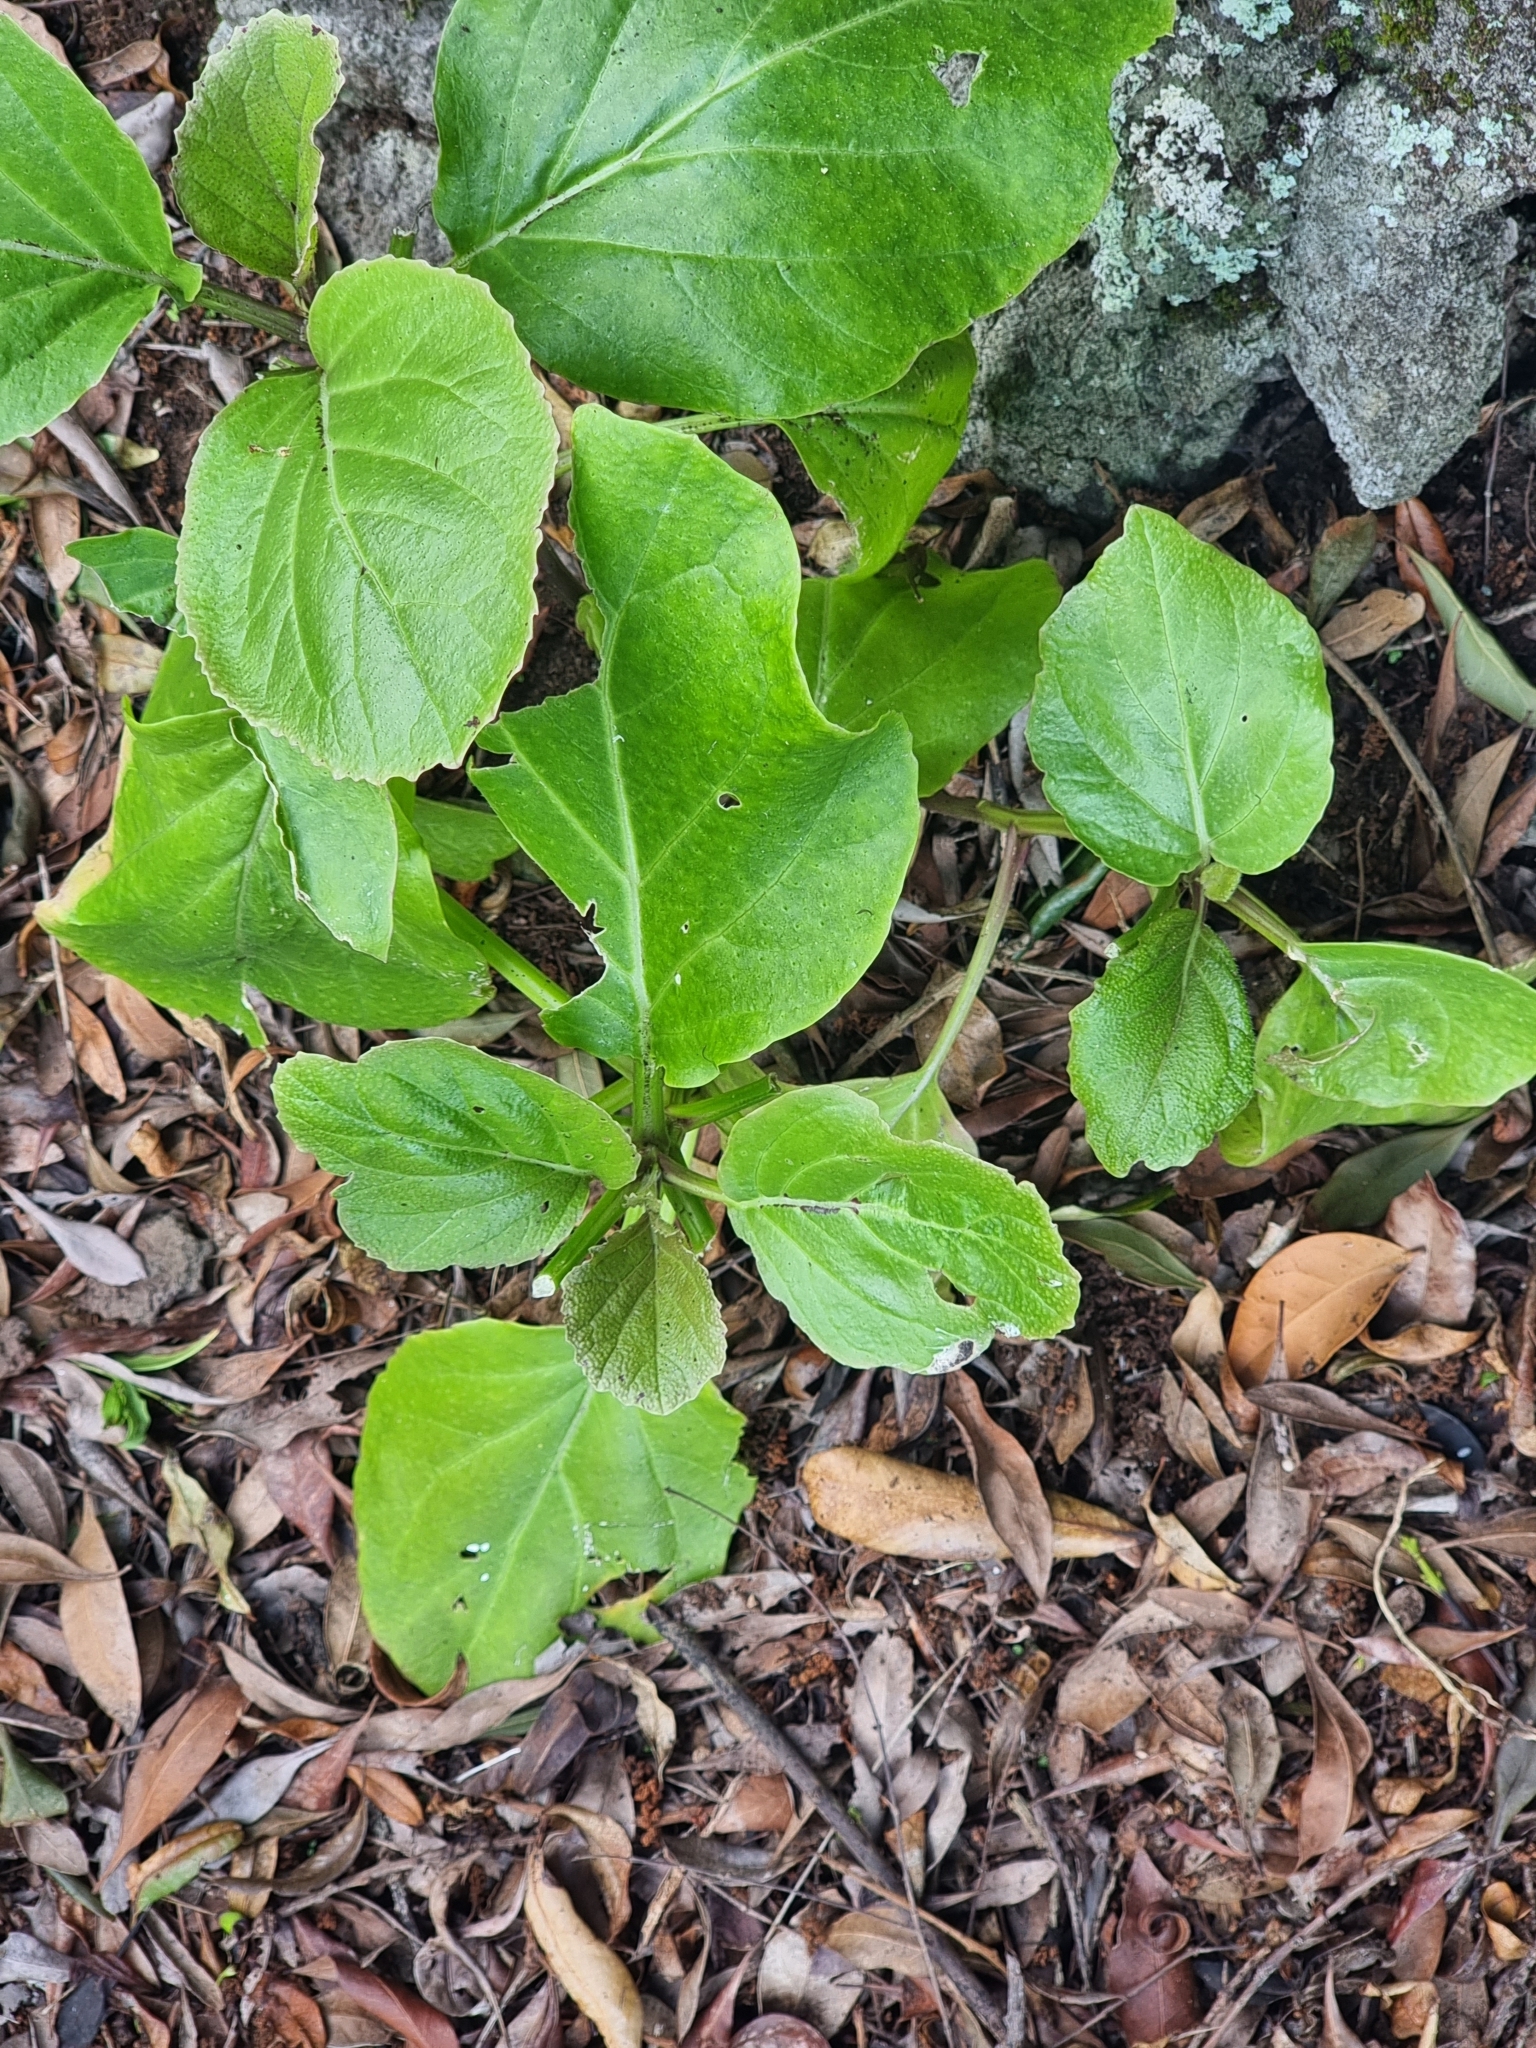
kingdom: Plantae
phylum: Tracheophyta
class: Magnoliopsida
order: Brassicales
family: Brassicaceae
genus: Sinapidendron
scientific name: Sinapidendron rupestre
